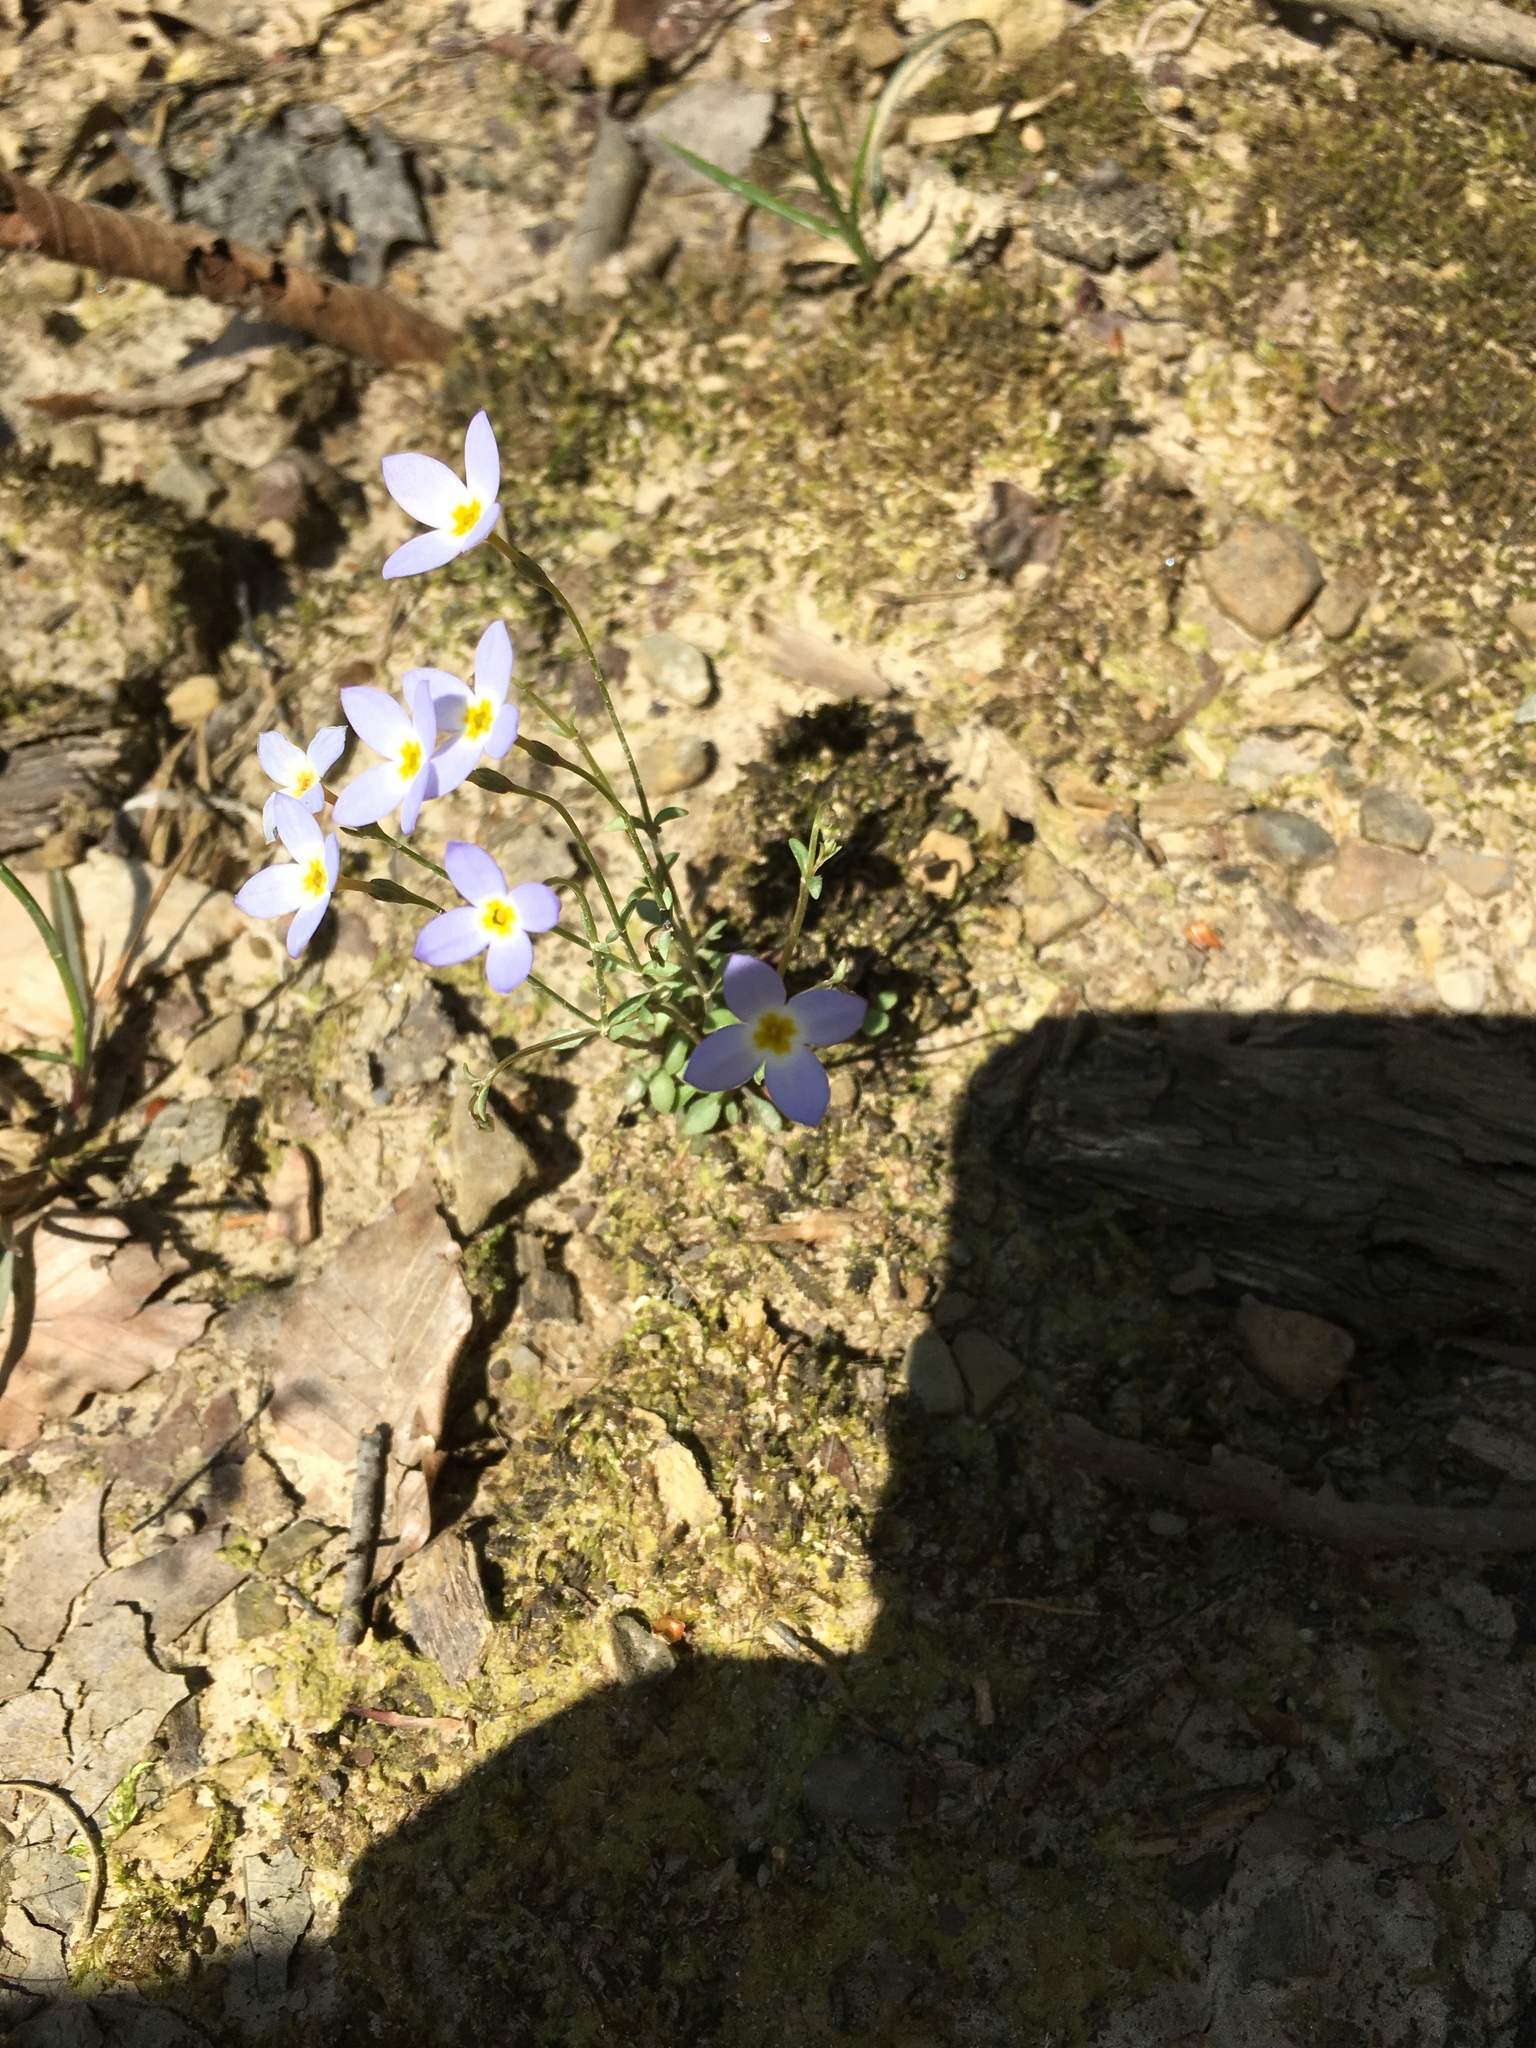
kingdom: Plantae
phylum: Tracheophyta
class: Magnoliopsida
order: Gentianales
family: Rubiaceae
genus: Houstonia
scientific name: Houstonia caerulea
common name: Bluets
